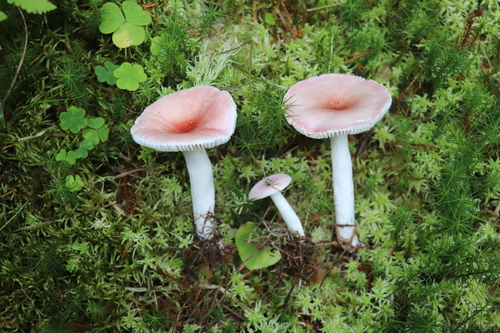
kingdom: Fungi
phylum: Basidiomycota
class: Agaricomycetes
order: Russulales
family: Russulaceae
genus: Russula
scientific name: Russula
